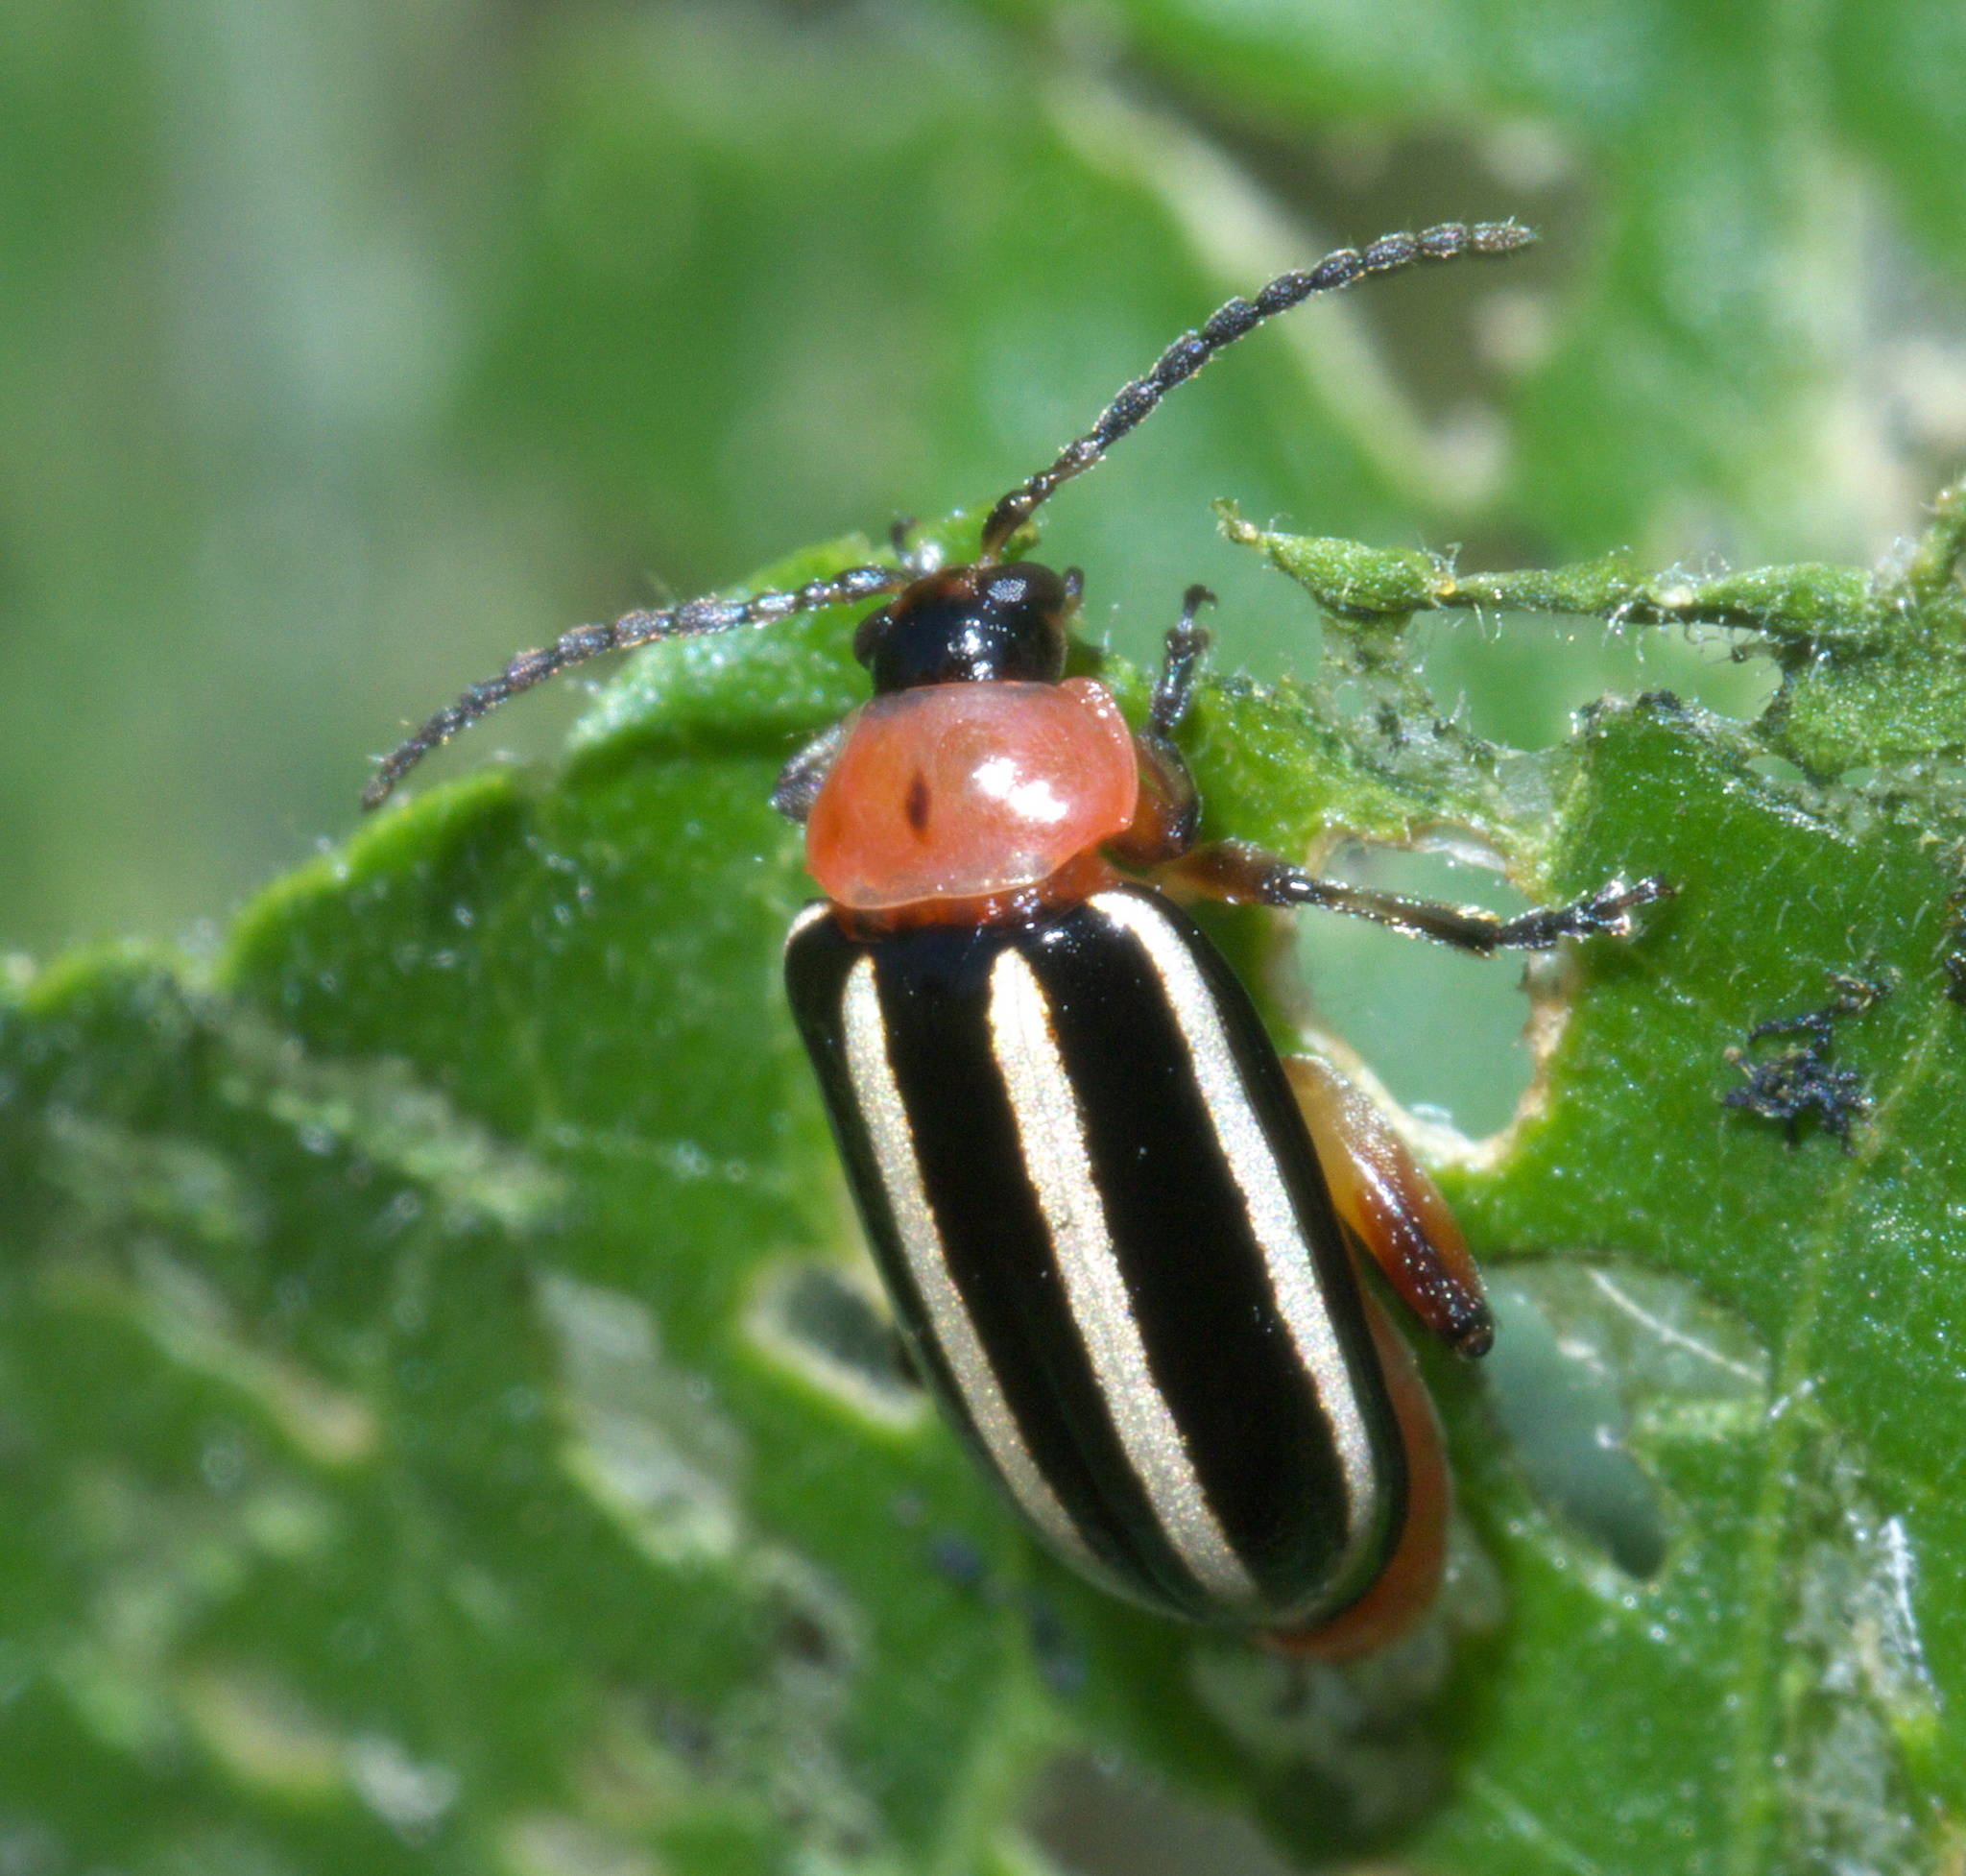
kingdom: Animalia
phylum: Arthropoda
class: Insecta
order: Coleoptera
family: Chrysomelidae
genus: Disonycha
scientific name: Disonycha glabrata
